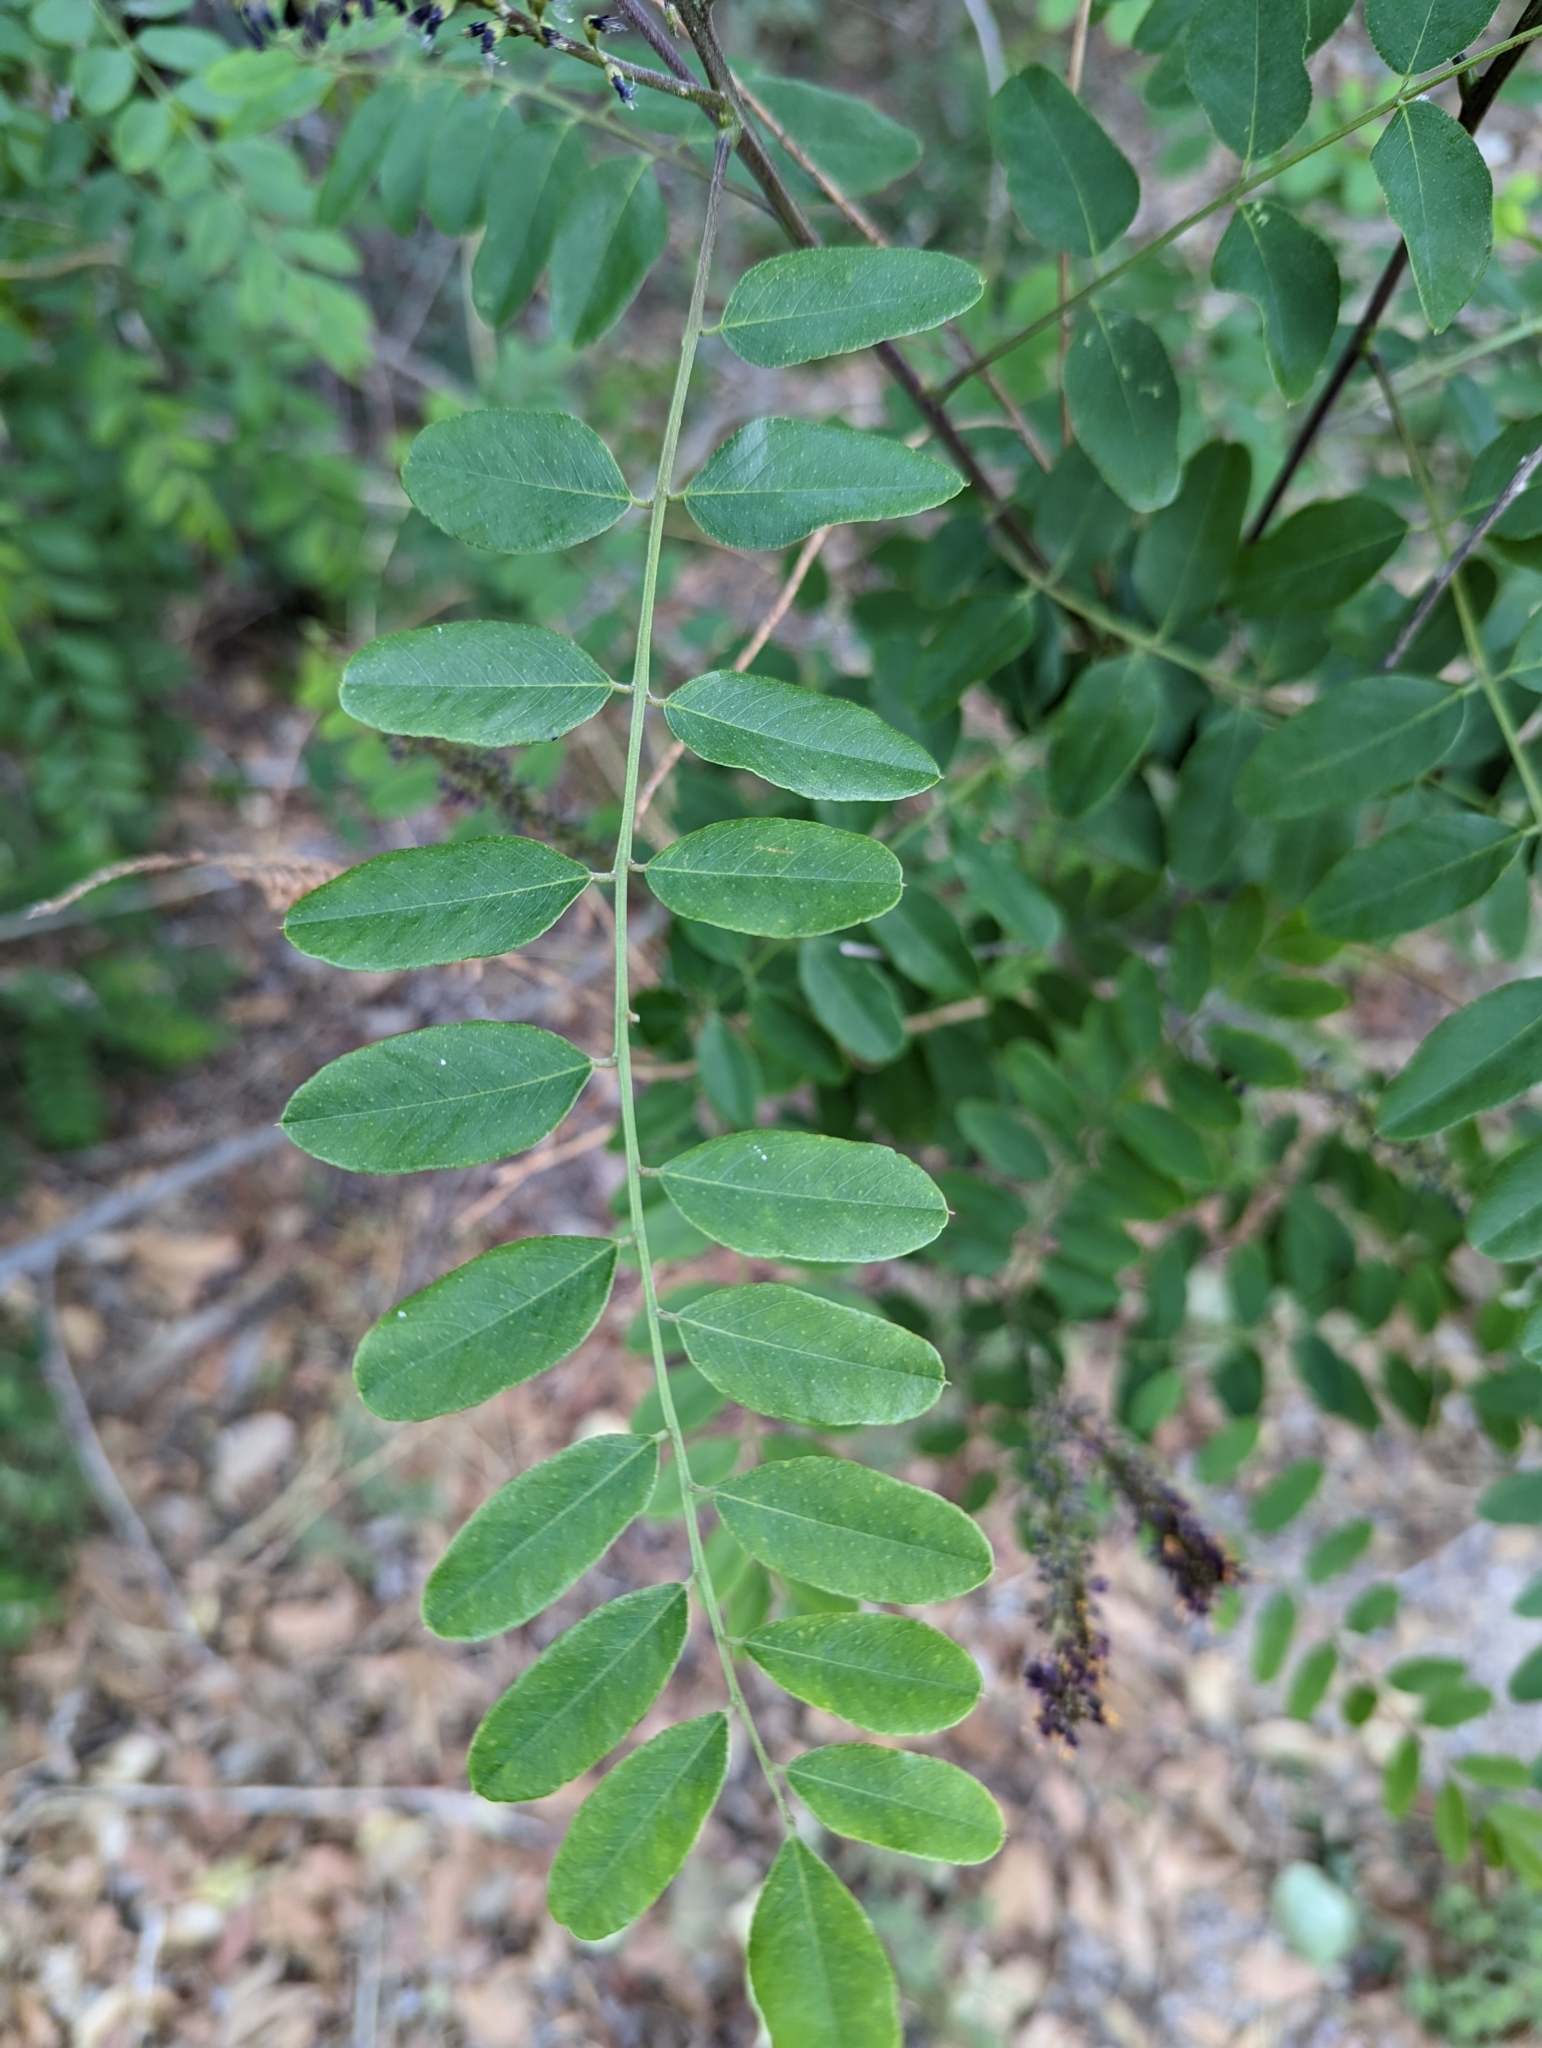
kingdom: Plantae
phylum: Tracheophyta
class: Magnoliopsida
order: Fabales
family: Fabaceae
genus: Amorpha
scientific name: Amorpha fruticosa
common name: False indigo
